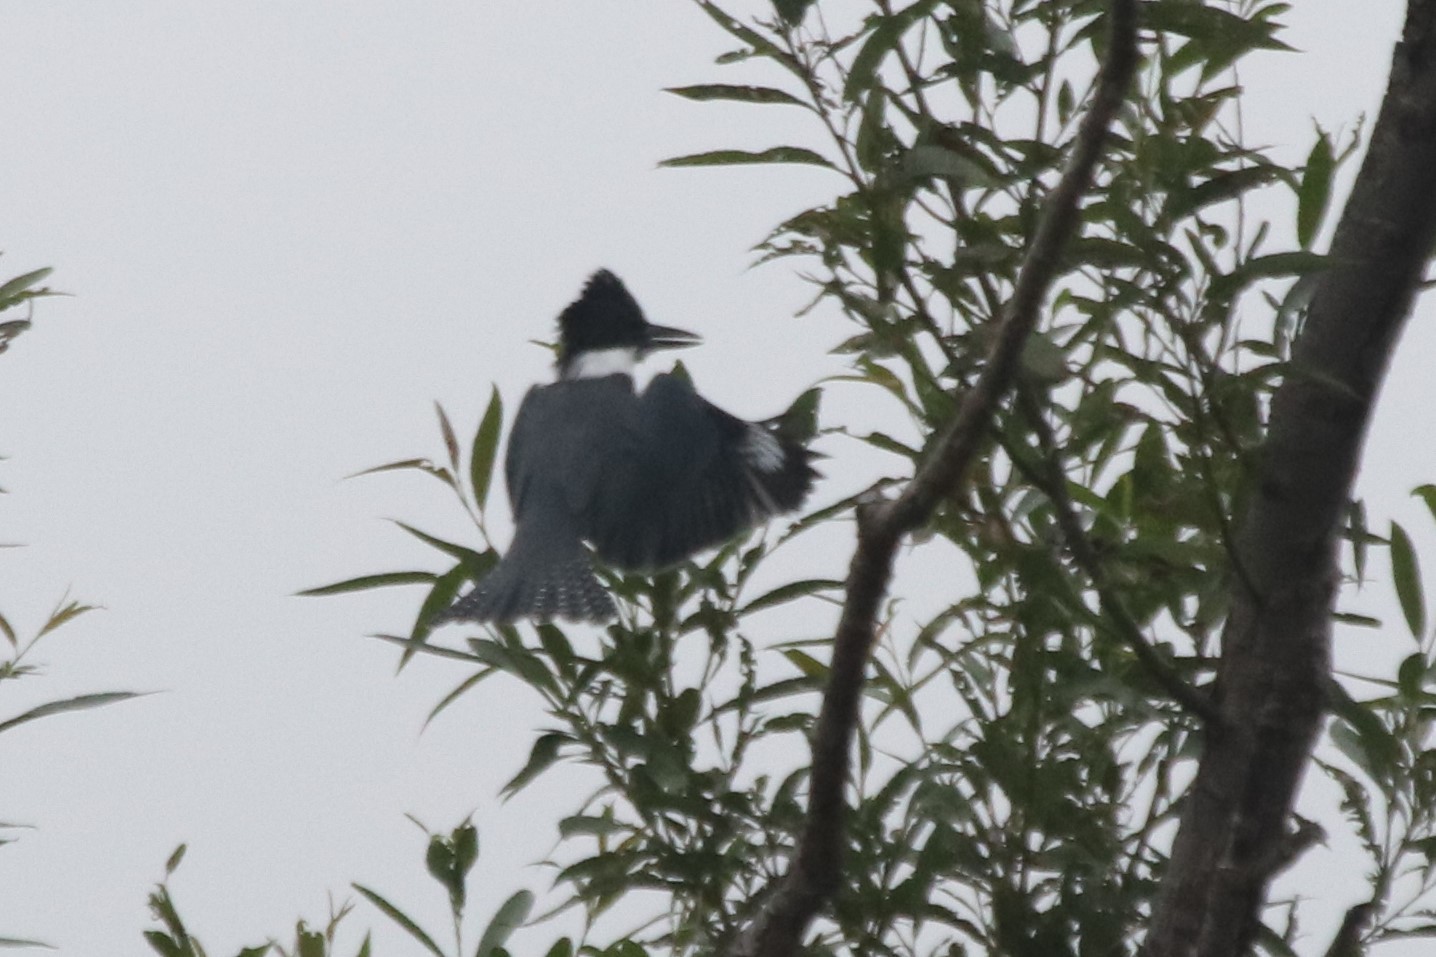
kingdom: Animalia
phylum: Chordata
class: Aves
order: Coraciiformes
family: Alcedinidae
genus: Megaceryle
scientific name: Megaceryle alcyon
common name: Belted kingfisher
